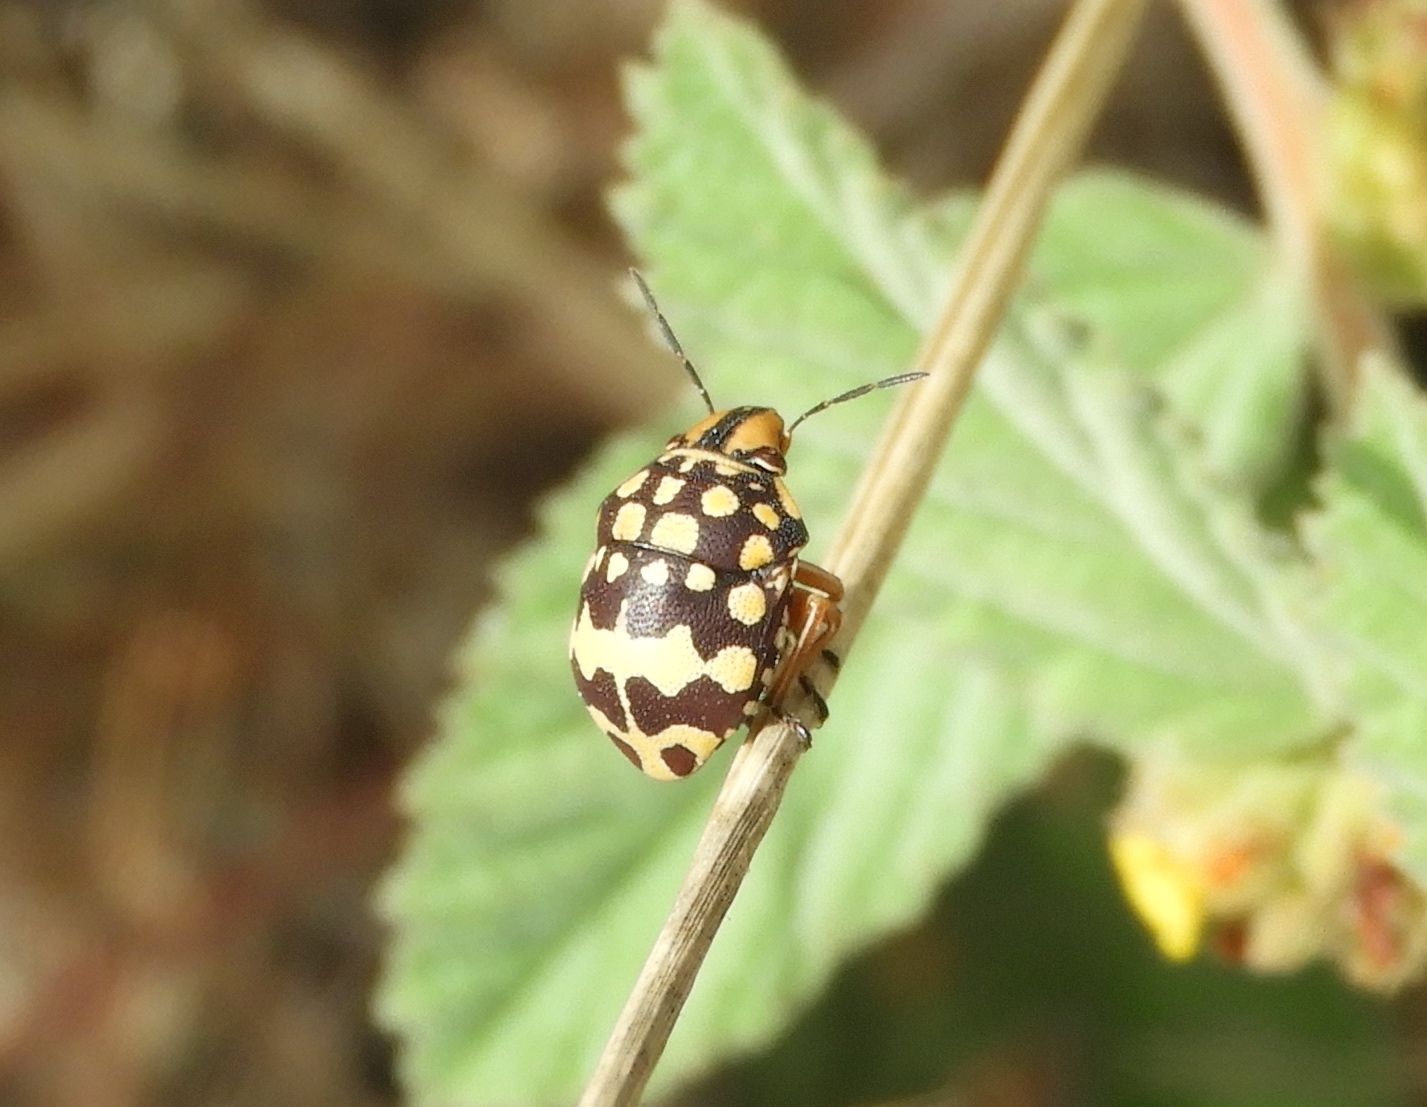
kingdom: Animalia
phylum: Arthropoda
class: Insecta
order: Hemiptera
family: Scutelleridae
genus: Orsilochides
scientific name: Orsilochides
